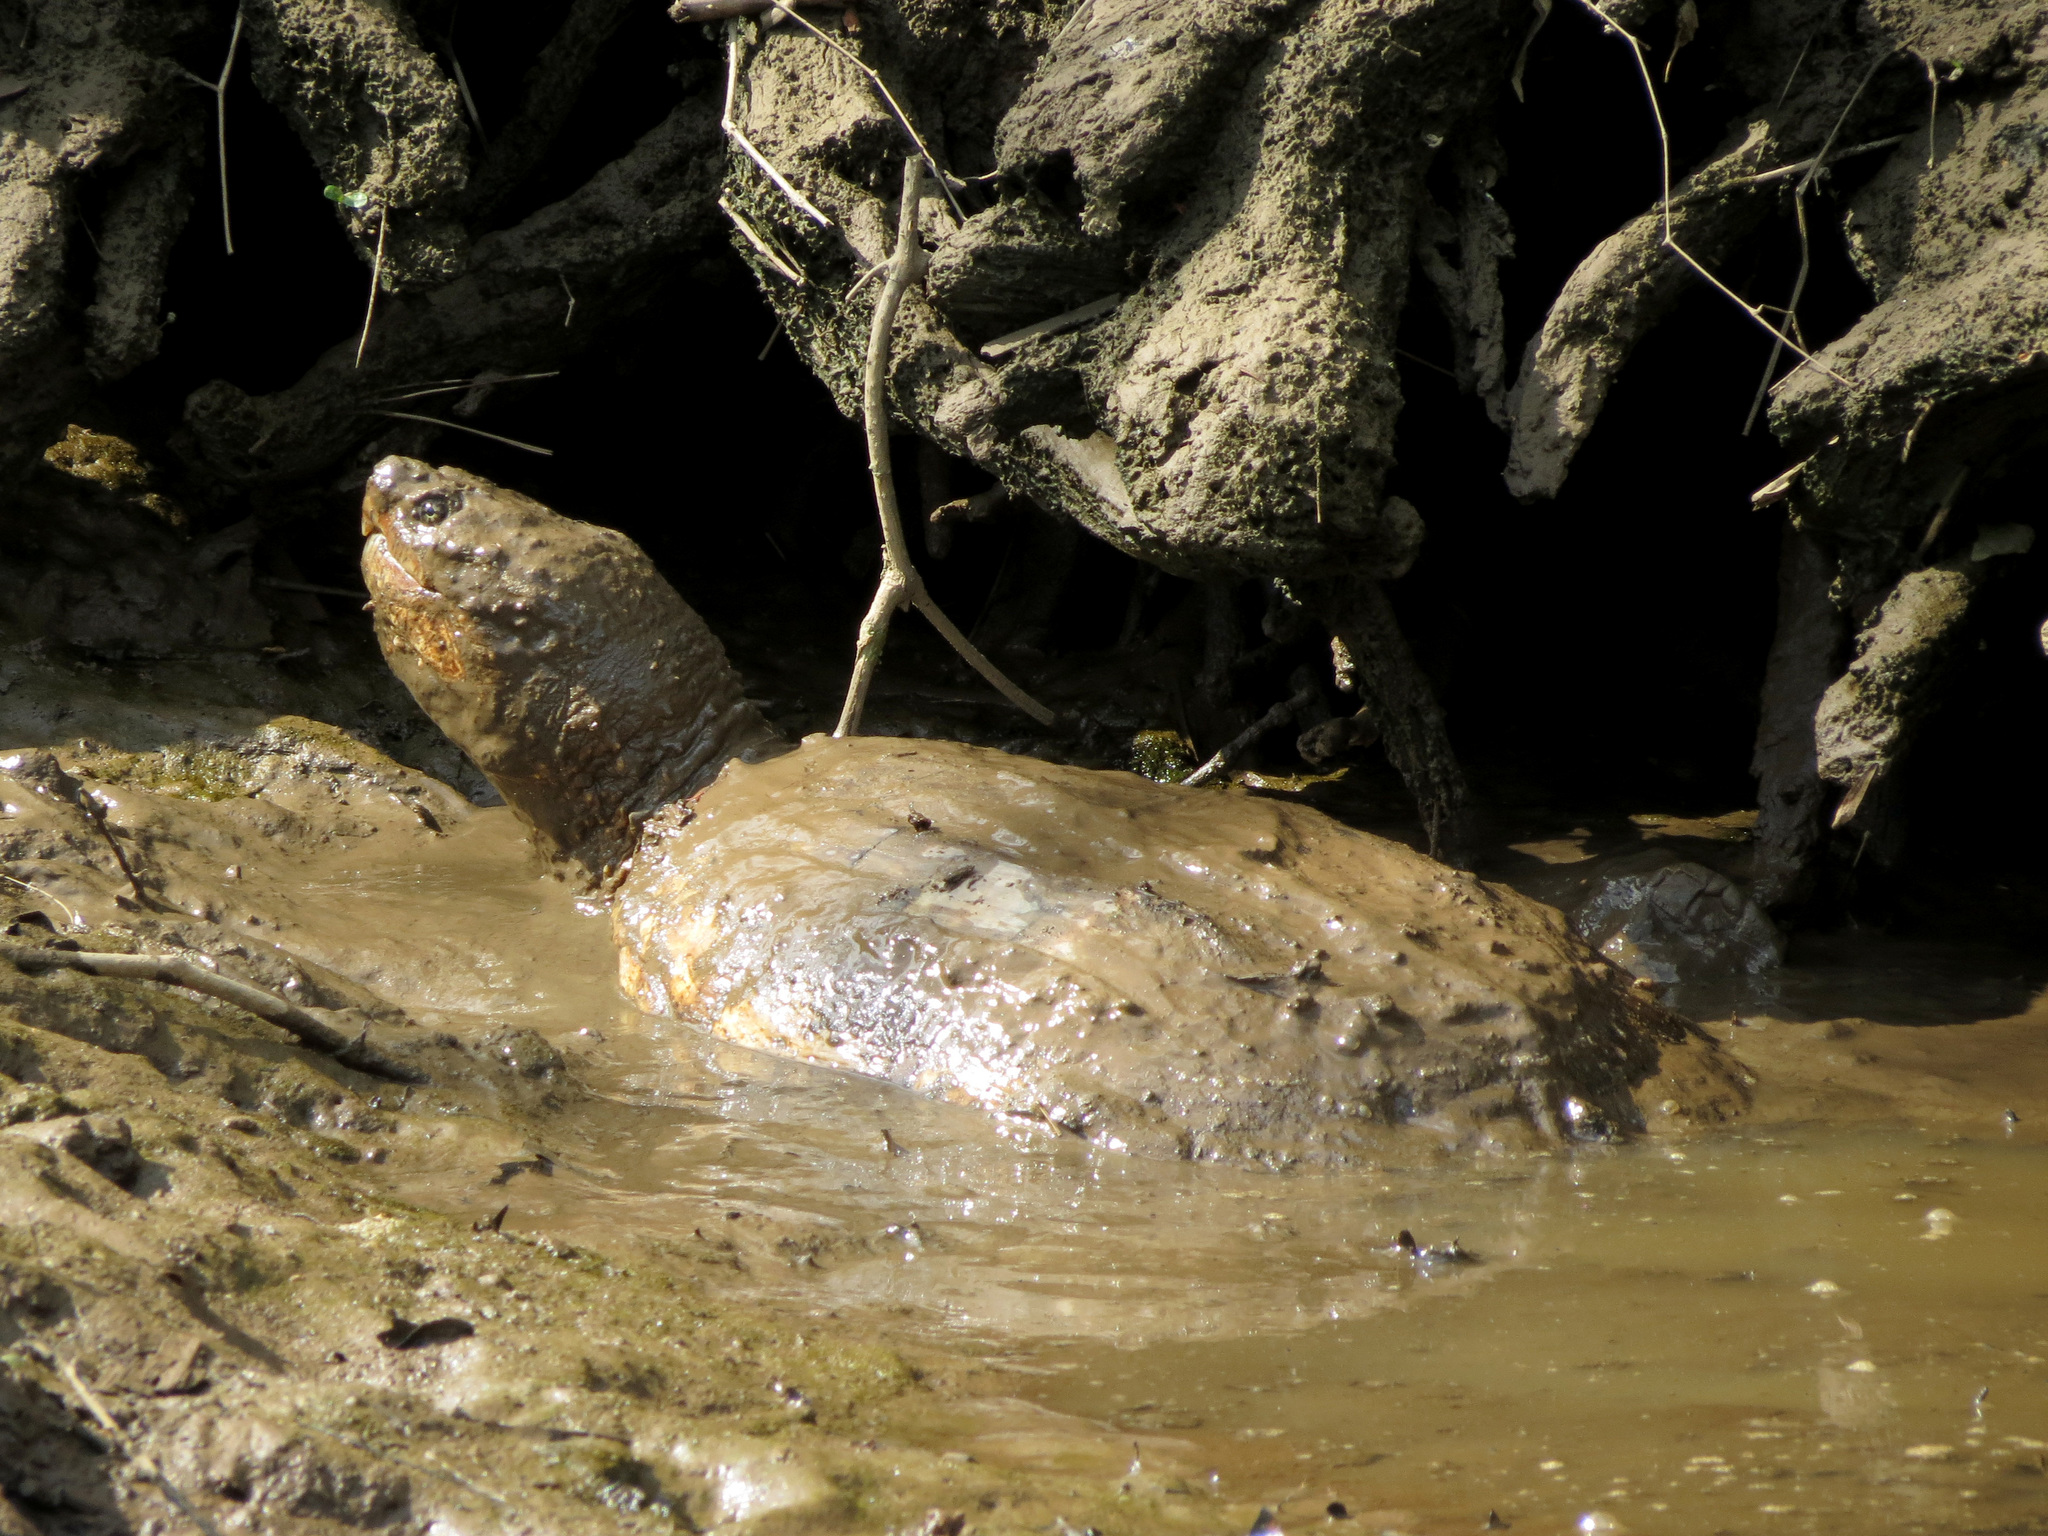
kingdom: Animalia
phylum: Chordata
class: Testudines
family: Chelydridae
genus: Chelydra
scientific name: Chelydra serpentina
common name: Common snapping turtle
